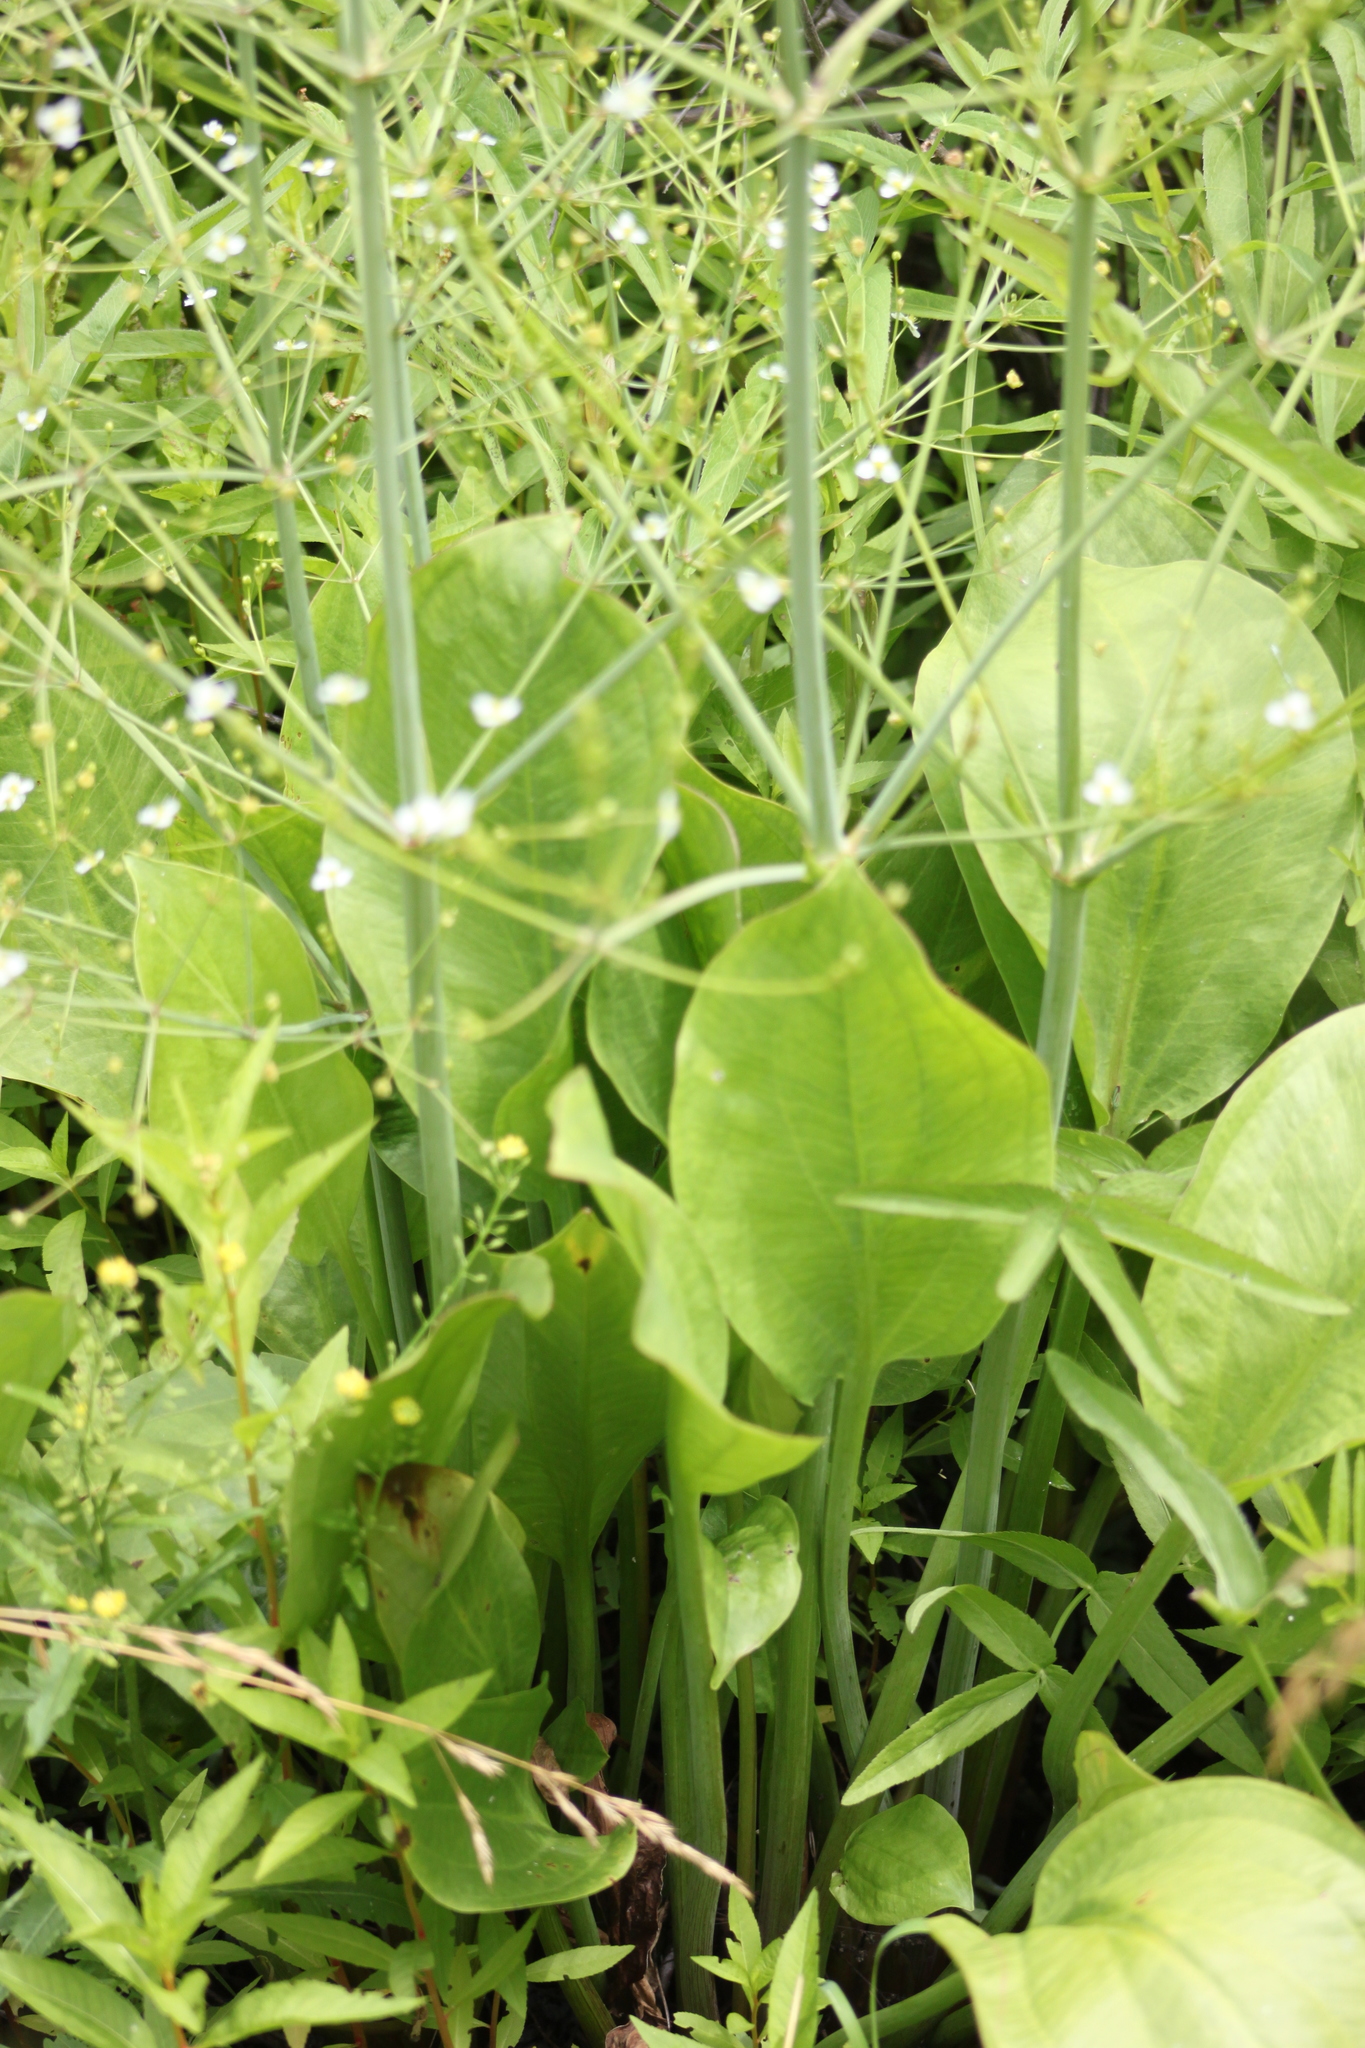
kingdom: Plantae
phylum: Tracheophyta
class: Liliopsida
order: Alismatales
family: Alismataceae
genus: Alisma
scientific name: Alisma triviale
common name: Northern water-plantain
